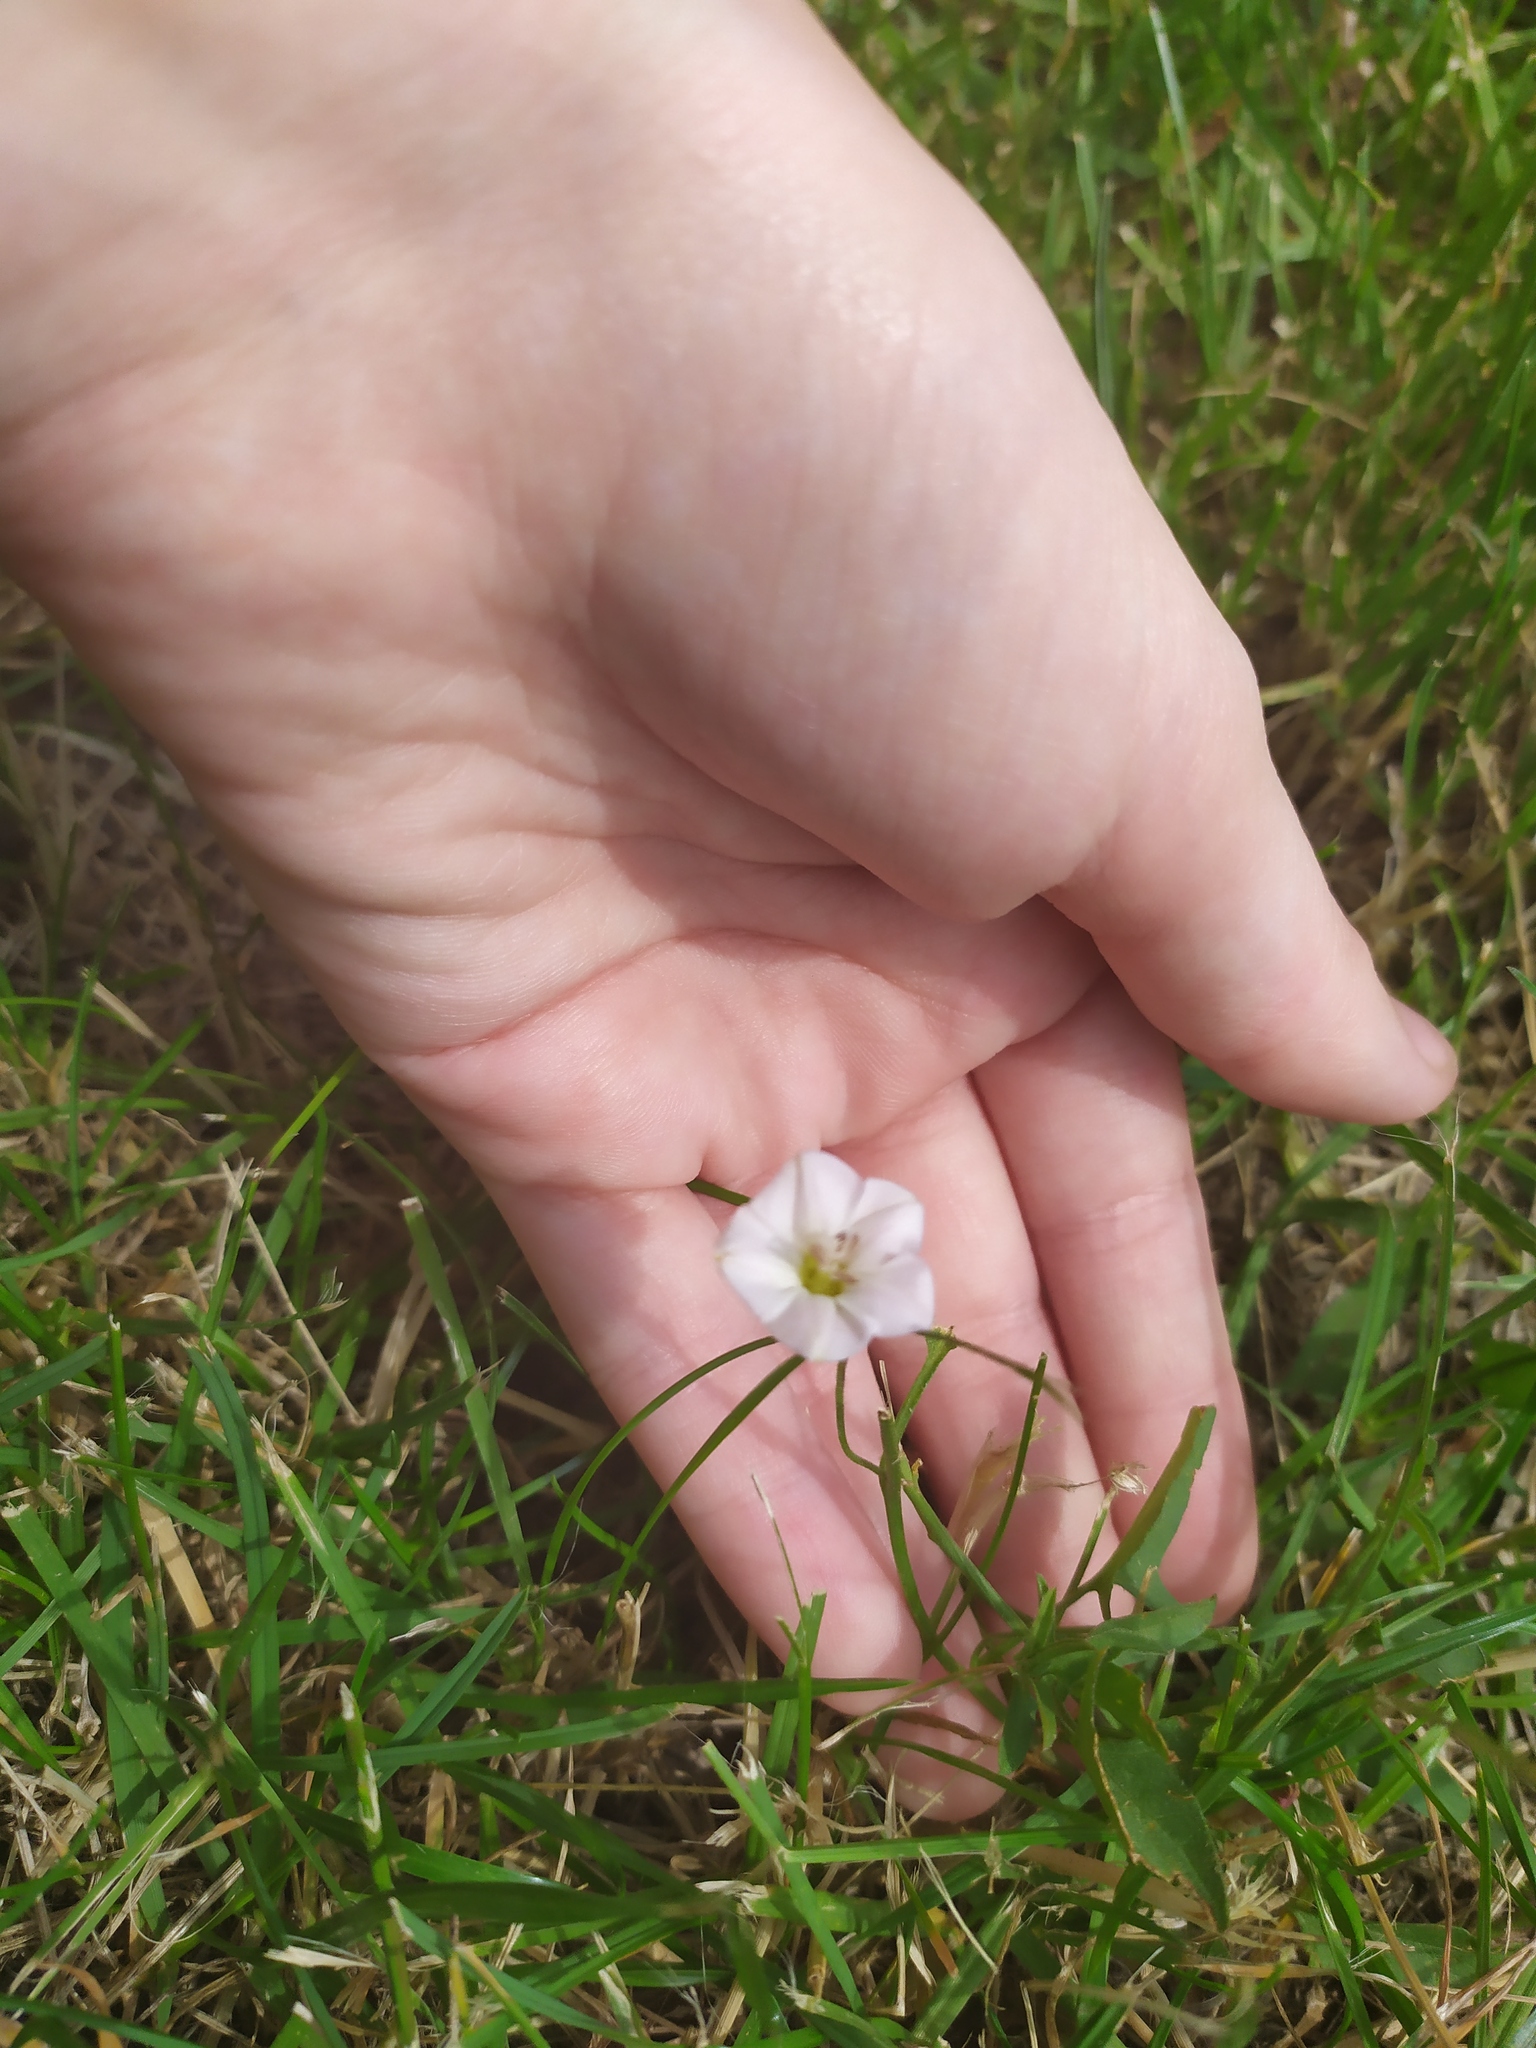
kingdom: Plantae
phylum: Tracheophyta
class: Magnoliopsida
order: Solanales
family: Convolvulaceae
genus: Convolvulus
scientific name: Convolvulus arvensis
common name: Field bindweed
